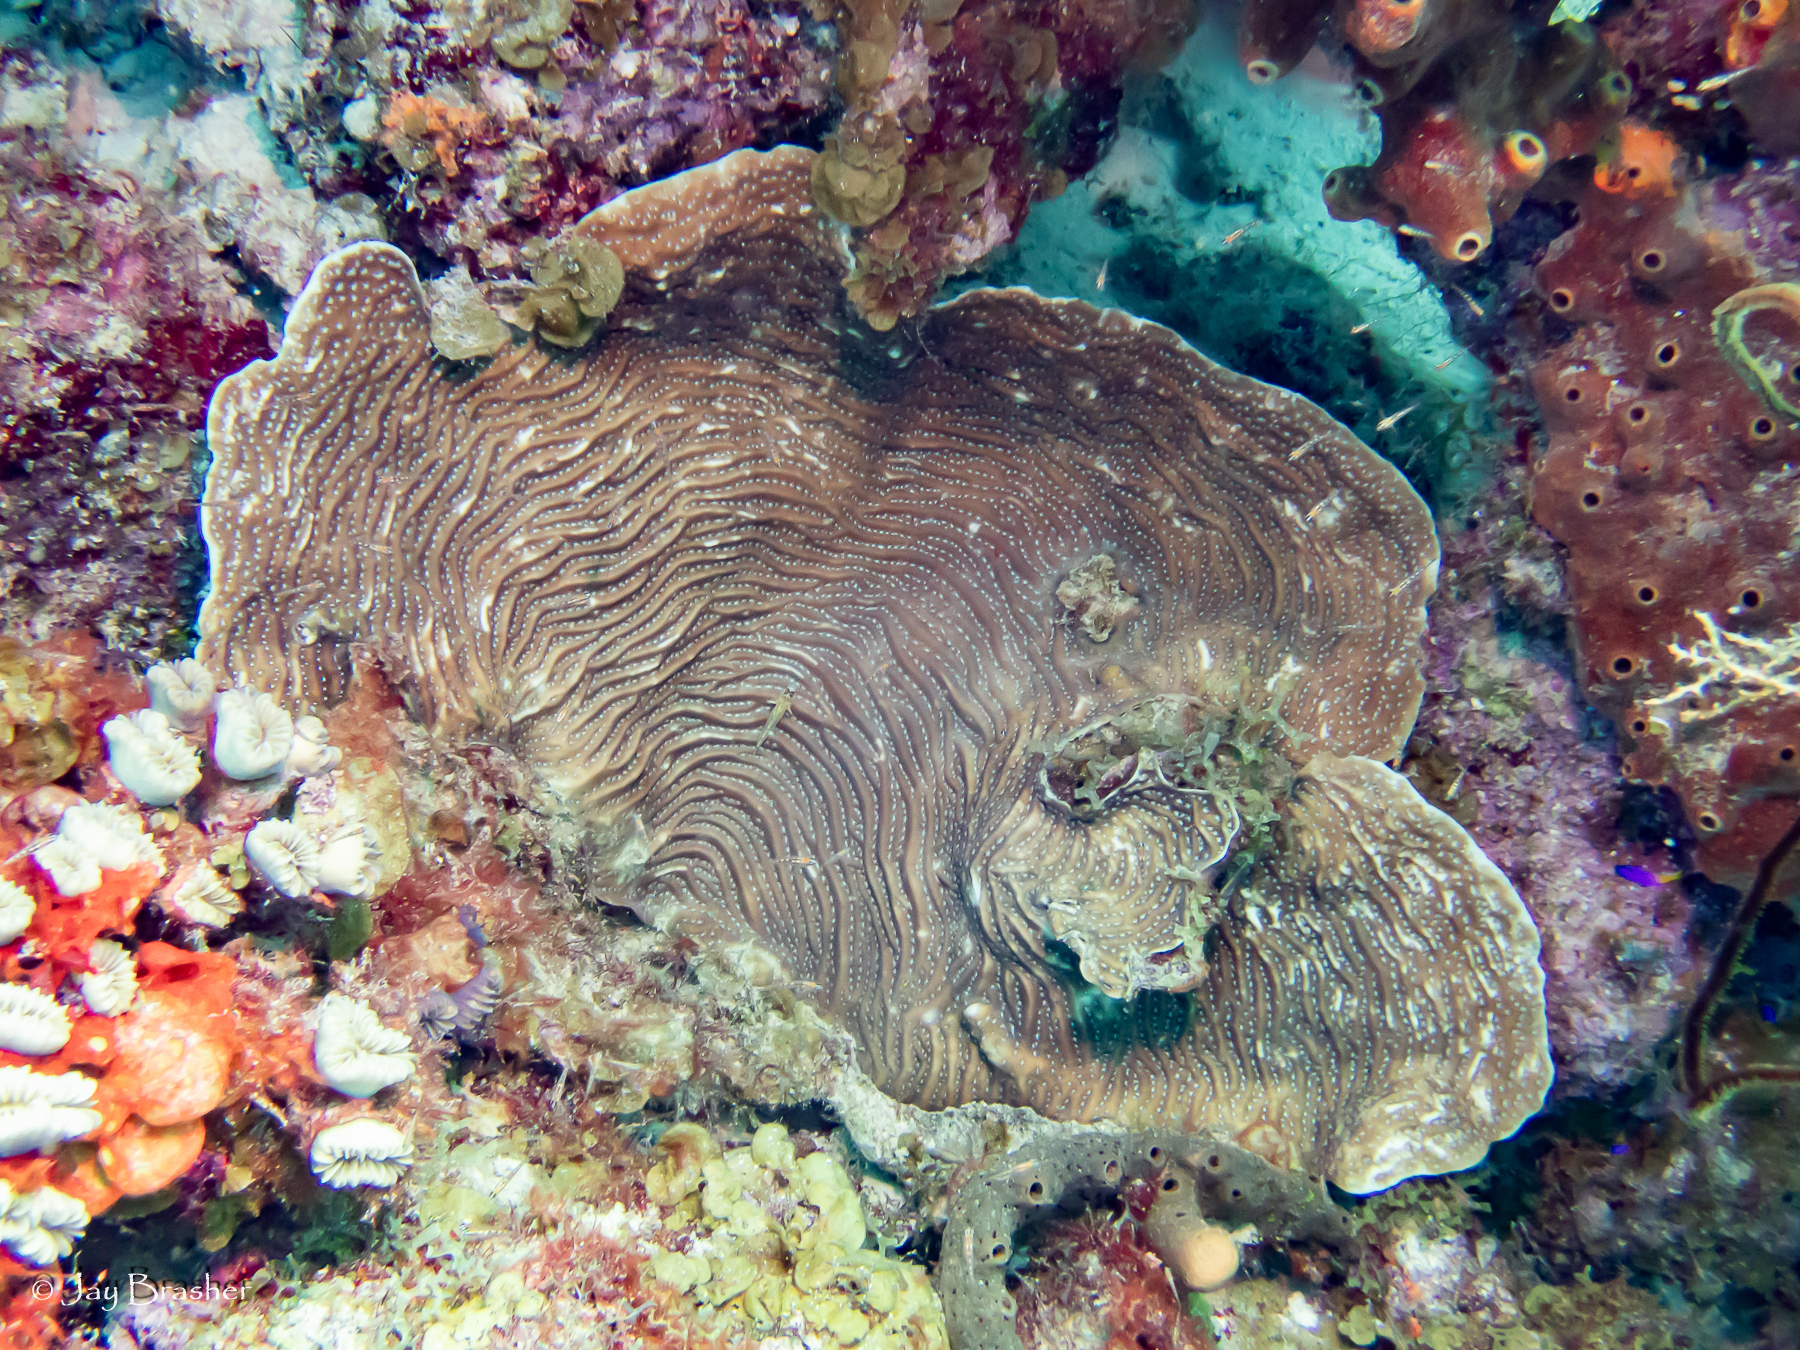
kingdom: Animalia
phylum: Cnidaria
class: Anthozoa
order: Scleractinia
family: Agariciidae
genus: Agaricia
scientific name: Agaricia lamarcki
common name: Lamarck's sheet coral
